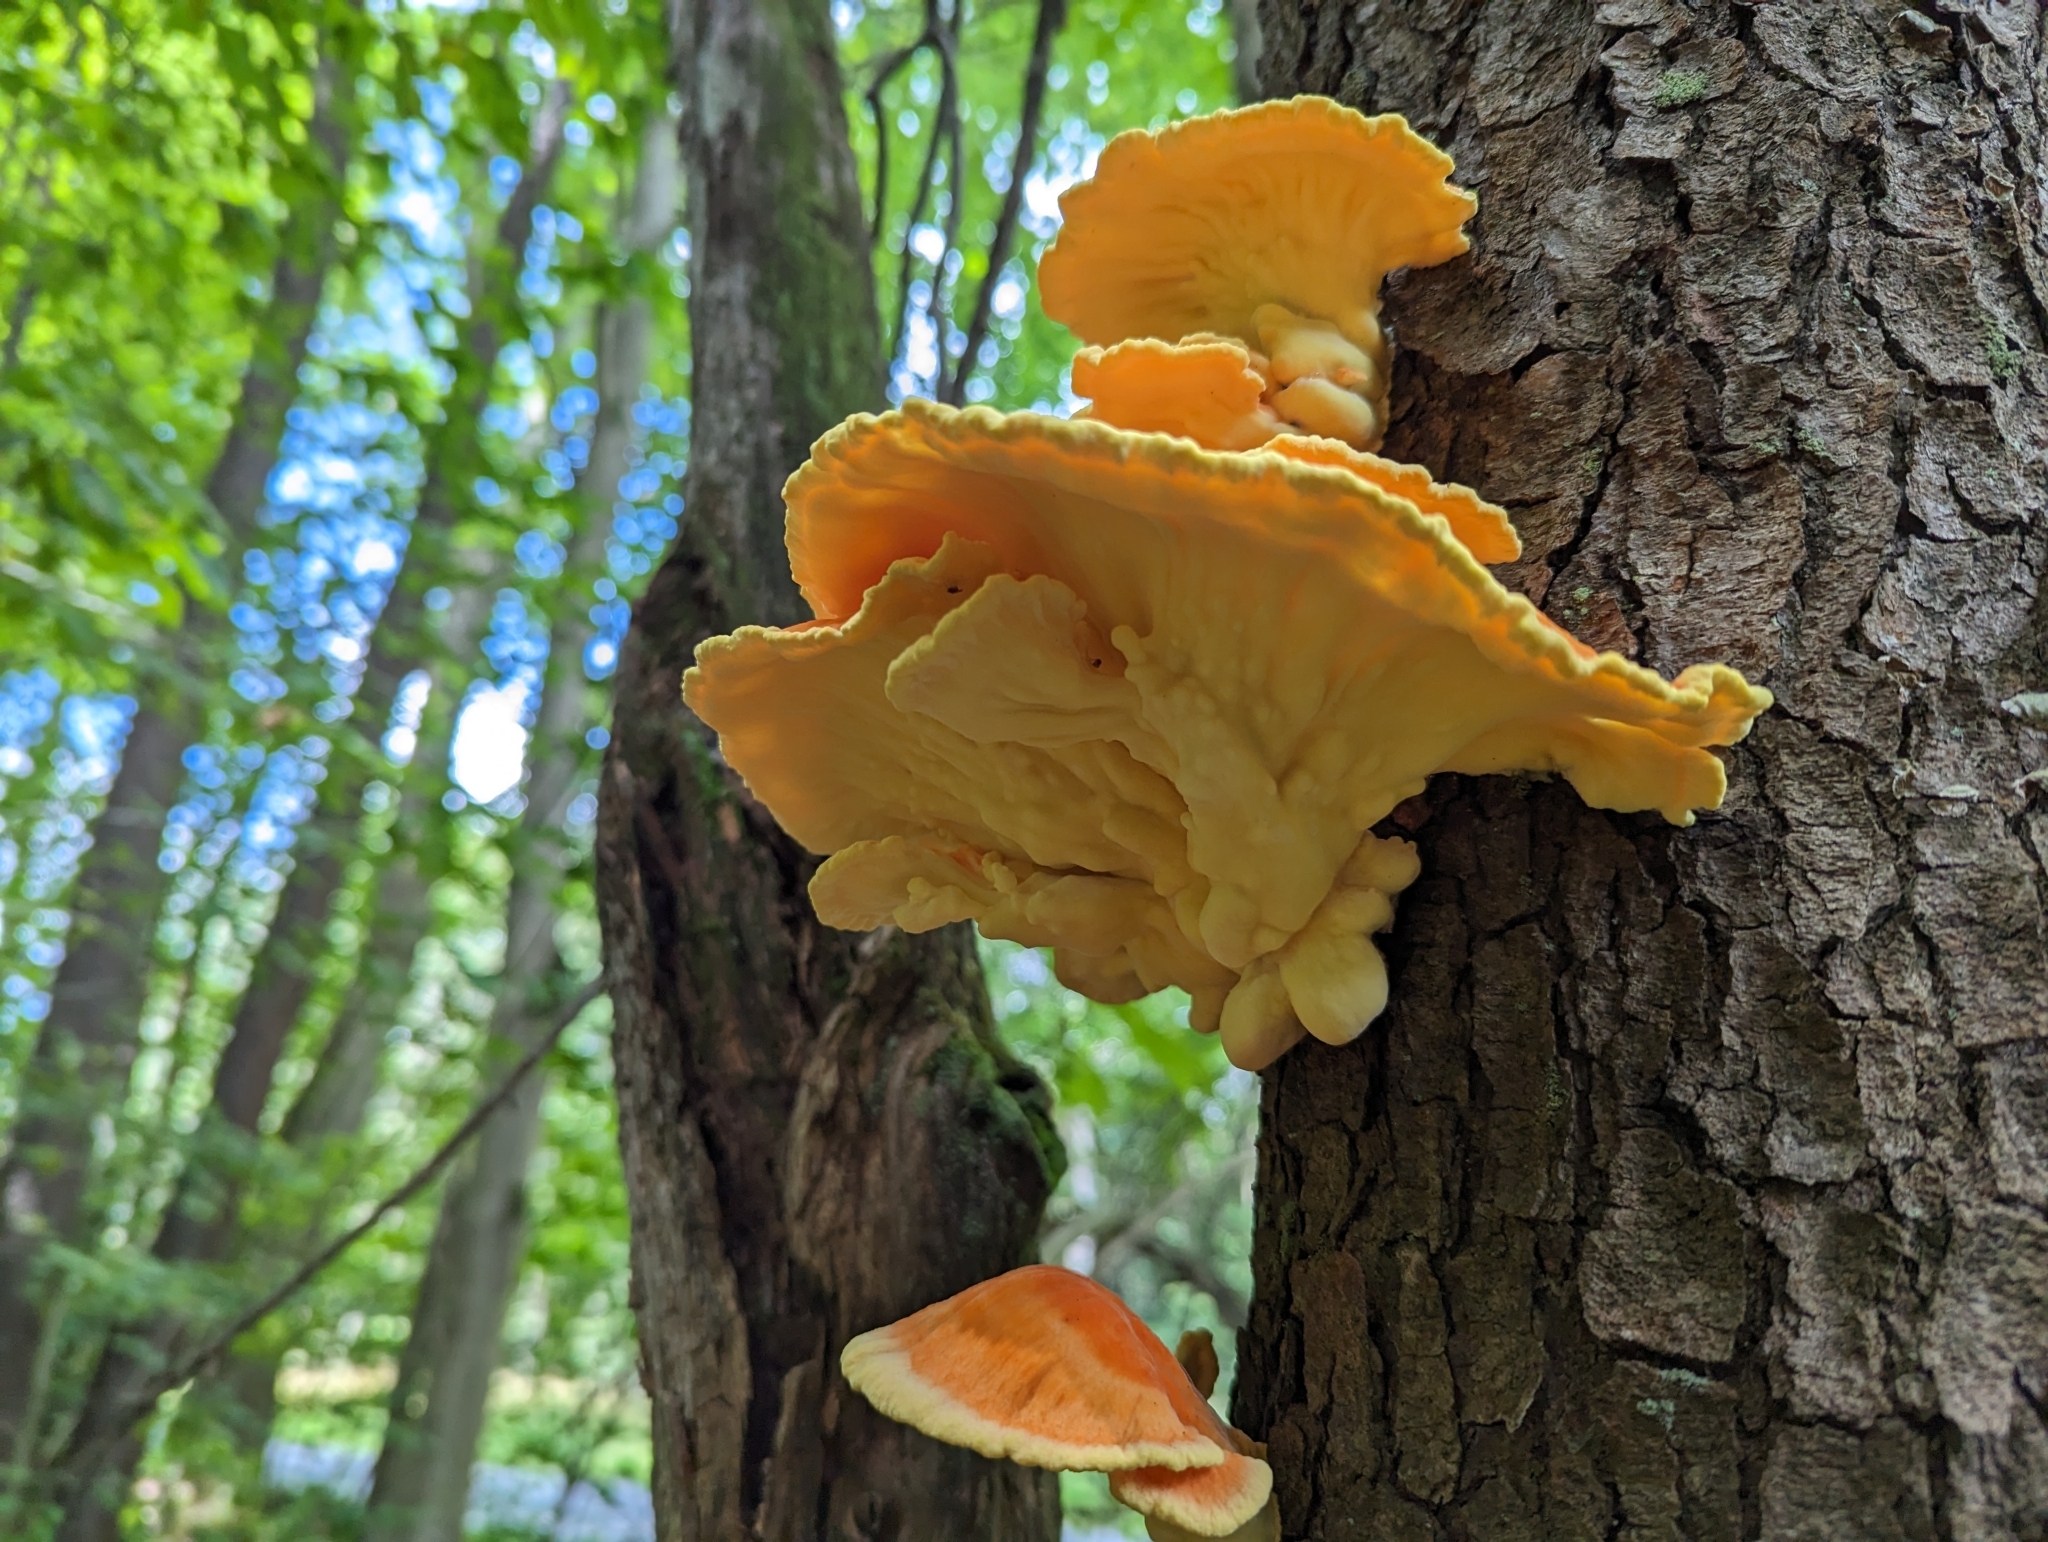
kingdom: Fungi
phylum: Basidiomycota
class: Agaricomycetes
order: Polyporales
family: Laetiporaceae
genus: Laetiporus
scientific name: Laetiporus sulphureus
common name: Chicken of the woods
